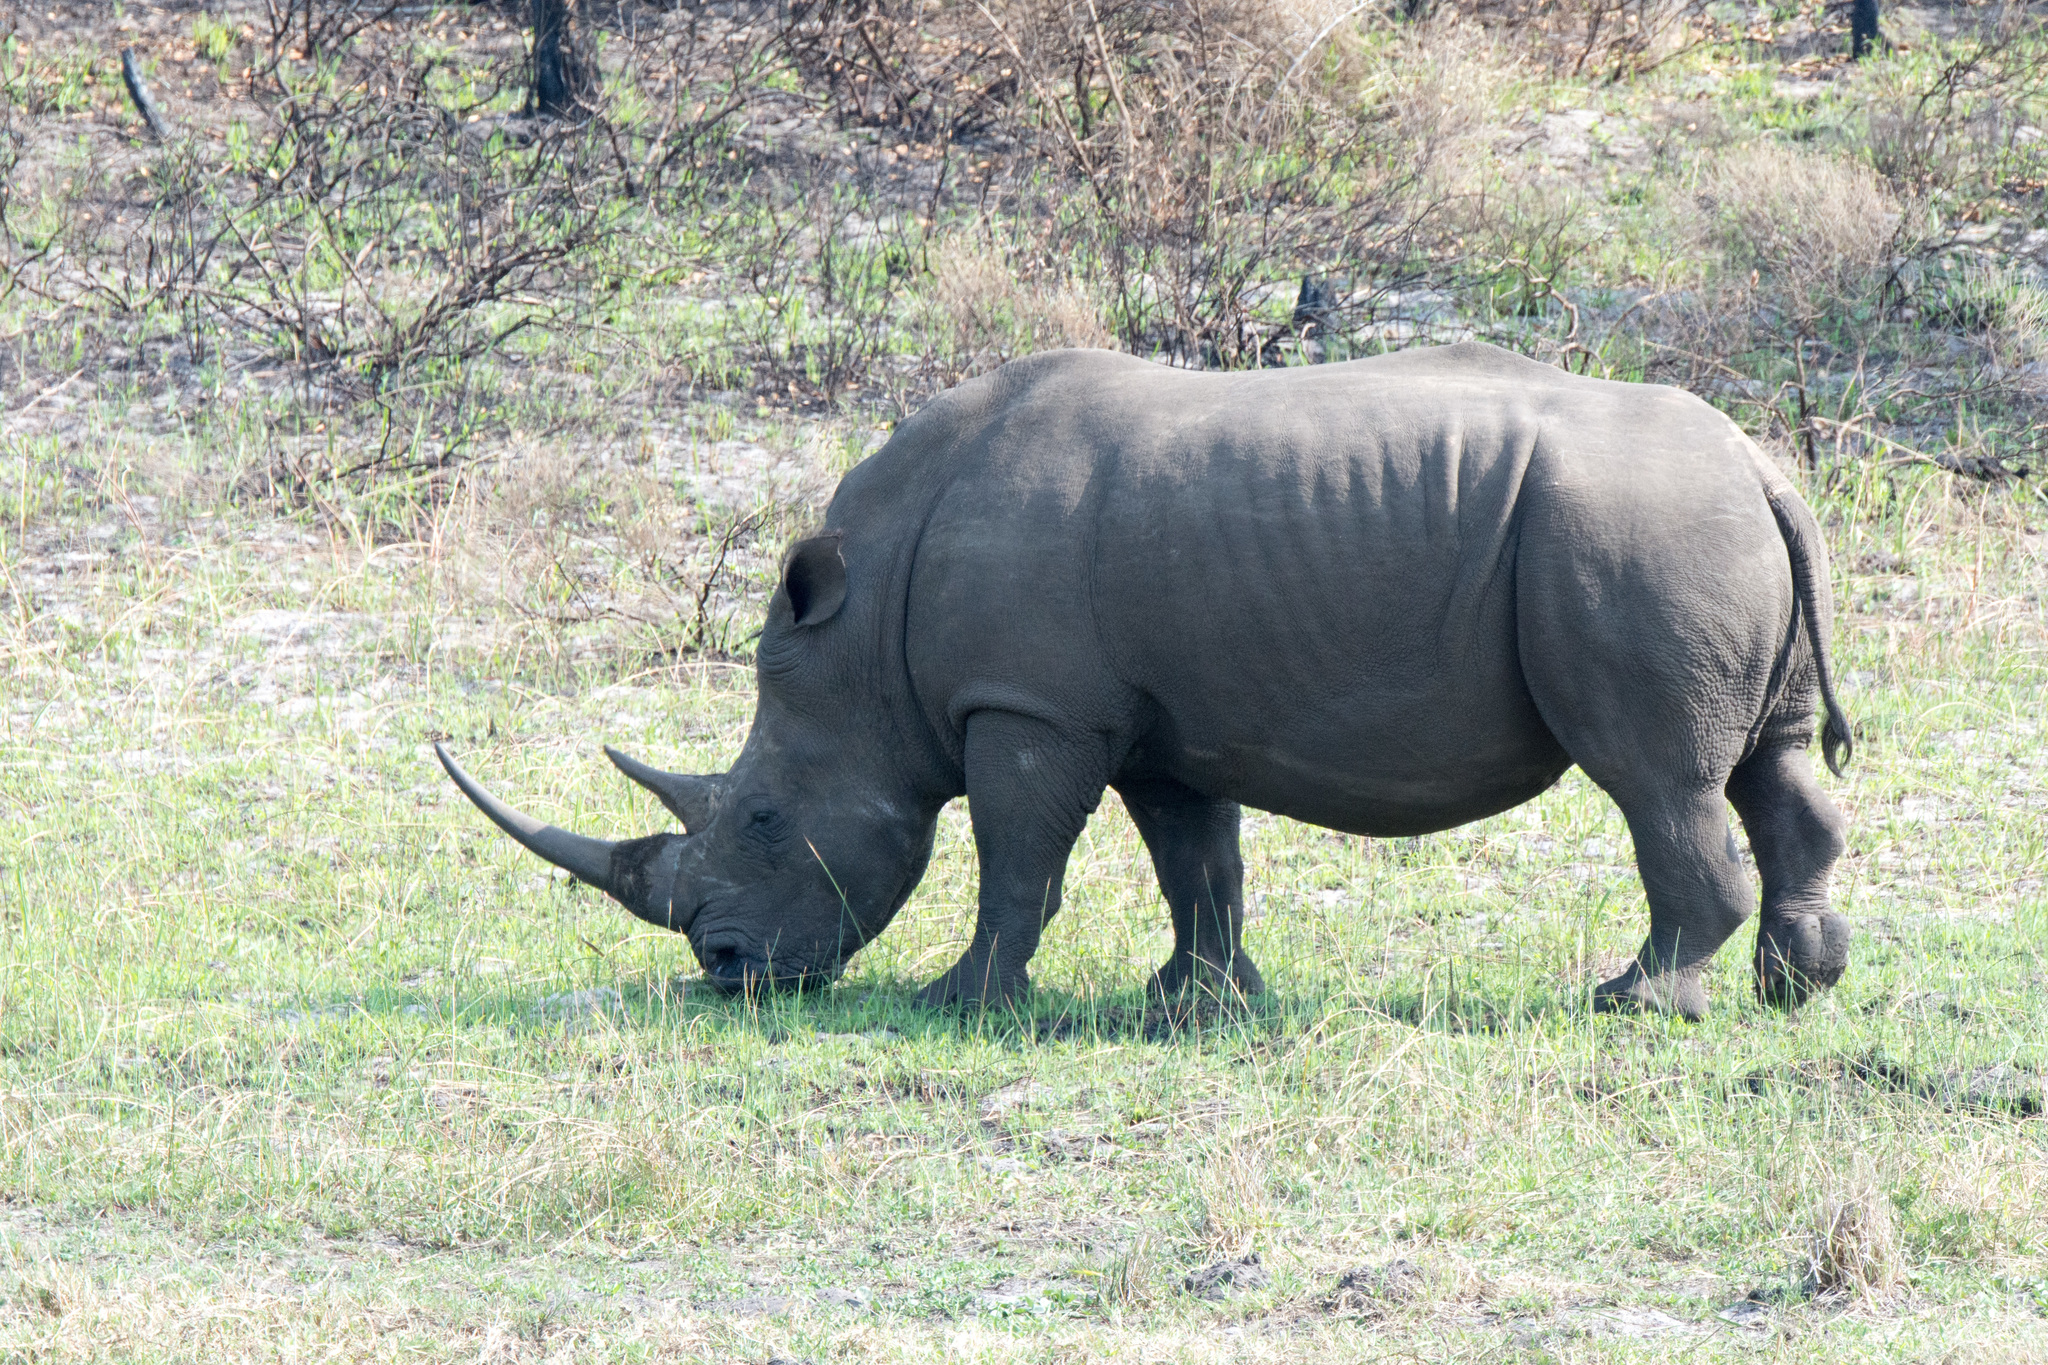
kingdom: Animalia
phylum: Chordata
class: Mammalia
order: Perissodactyla
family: Rhinocerotidae
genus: Ceratotherium
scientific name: Ceratotherium simum
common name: White rhinoceros
